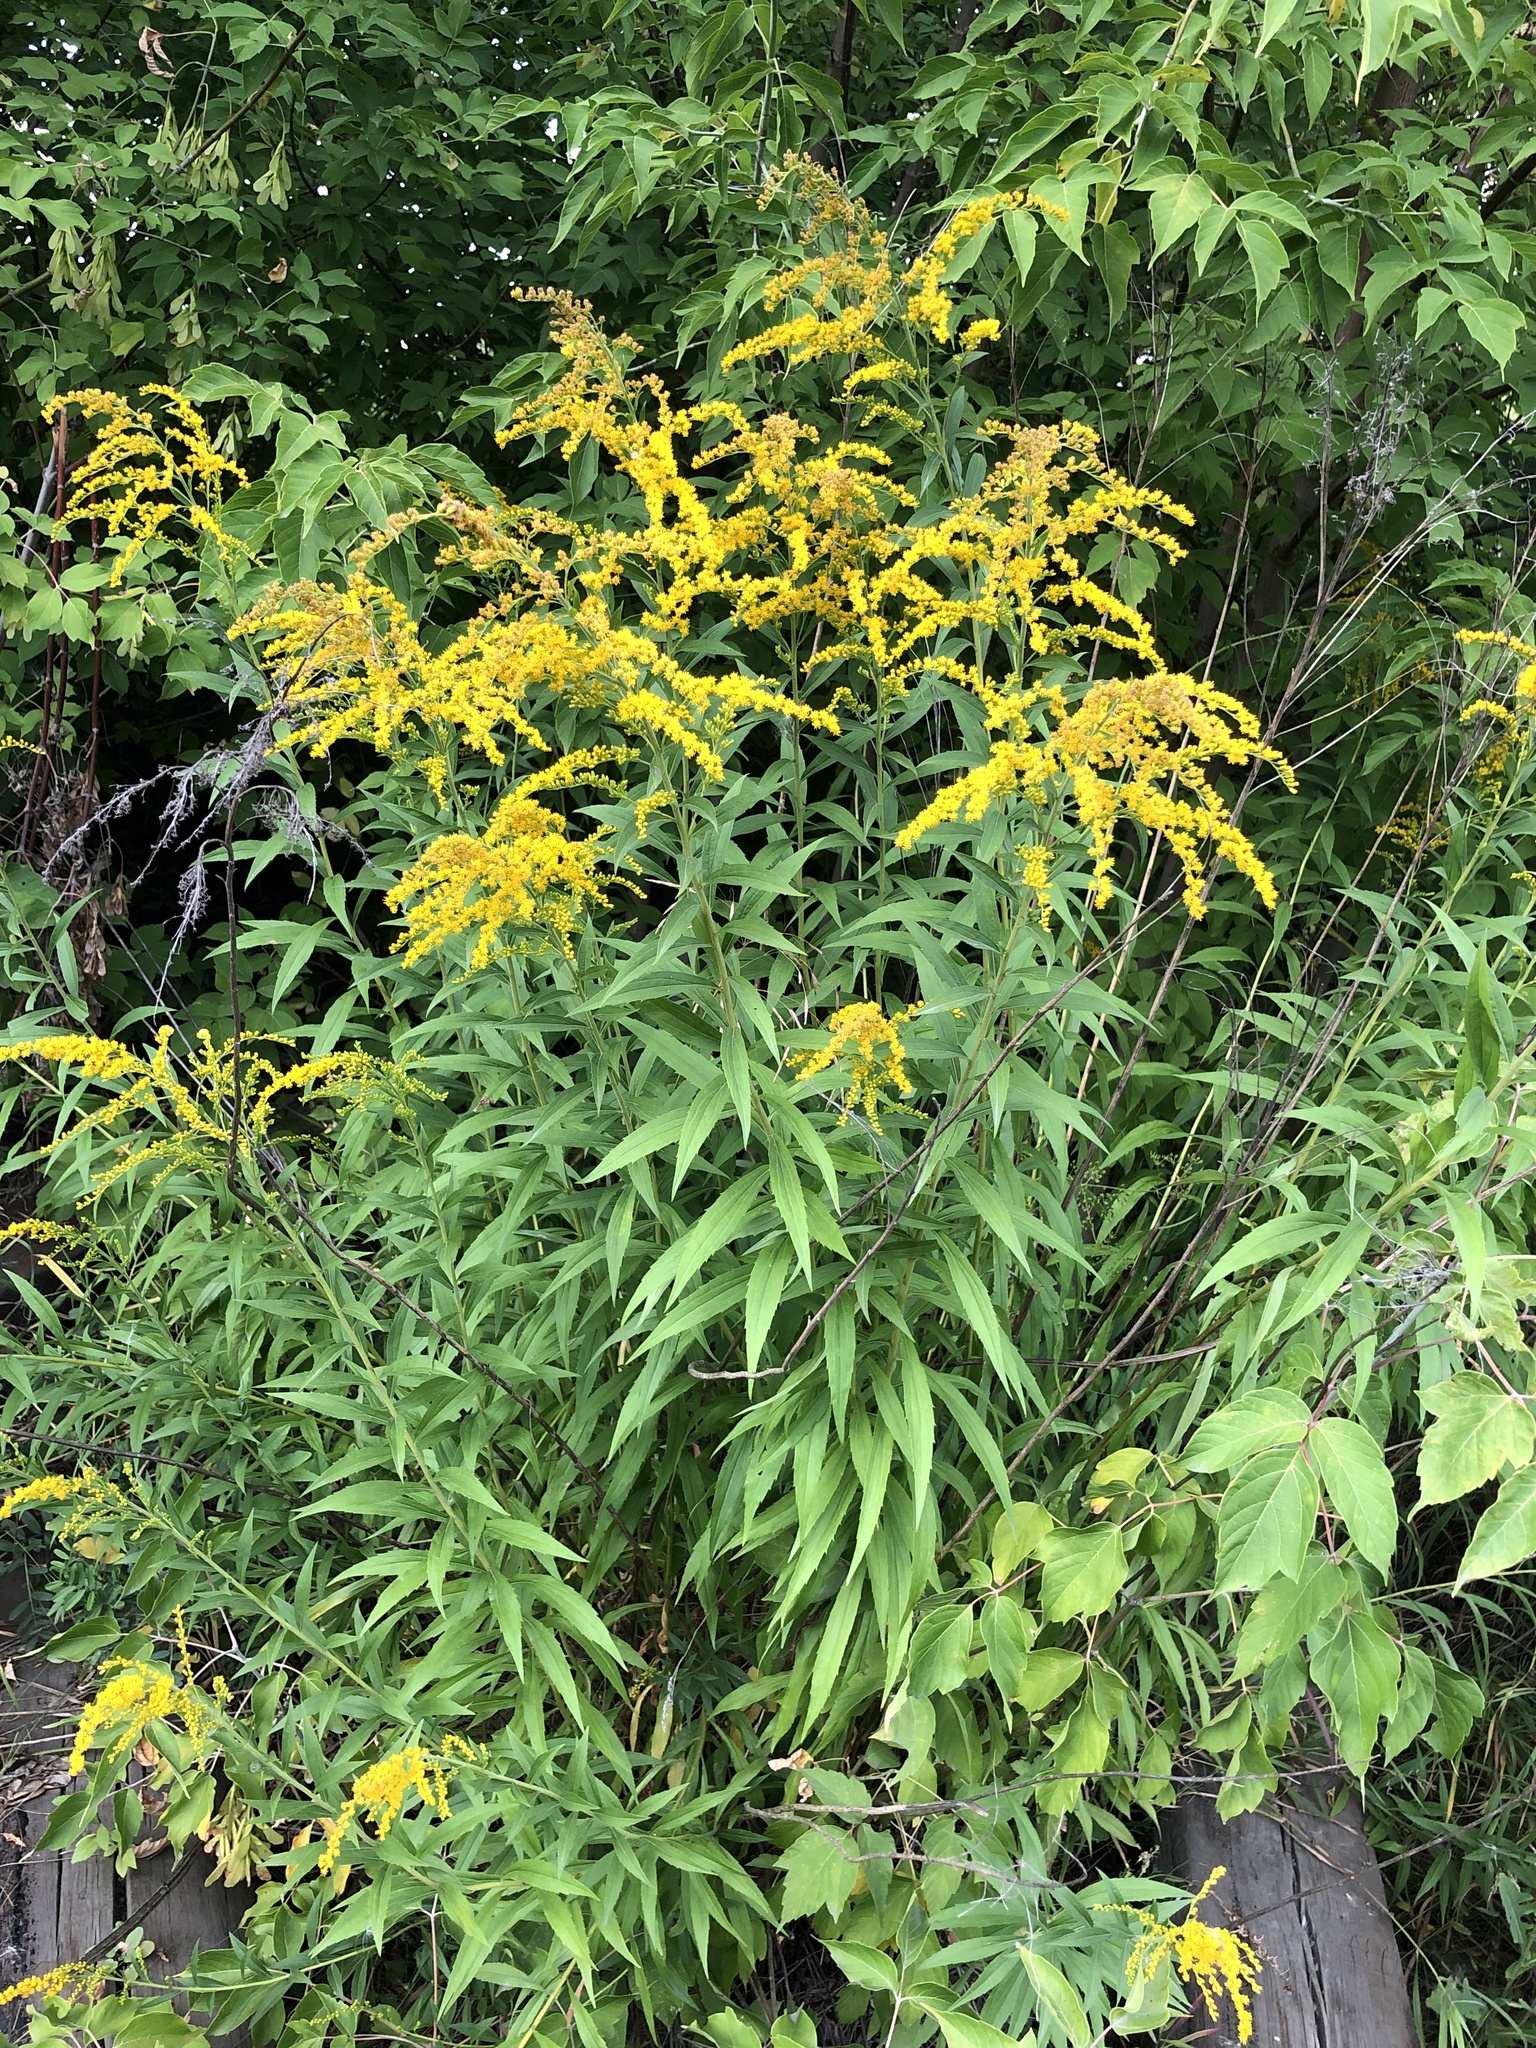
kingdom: Plantae
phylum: Tracheophyta
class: Magnoliopsida
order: Asterales
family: Asteraceae
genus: Solidago
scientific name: Solidago canadensis
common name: Canada goldenrod
